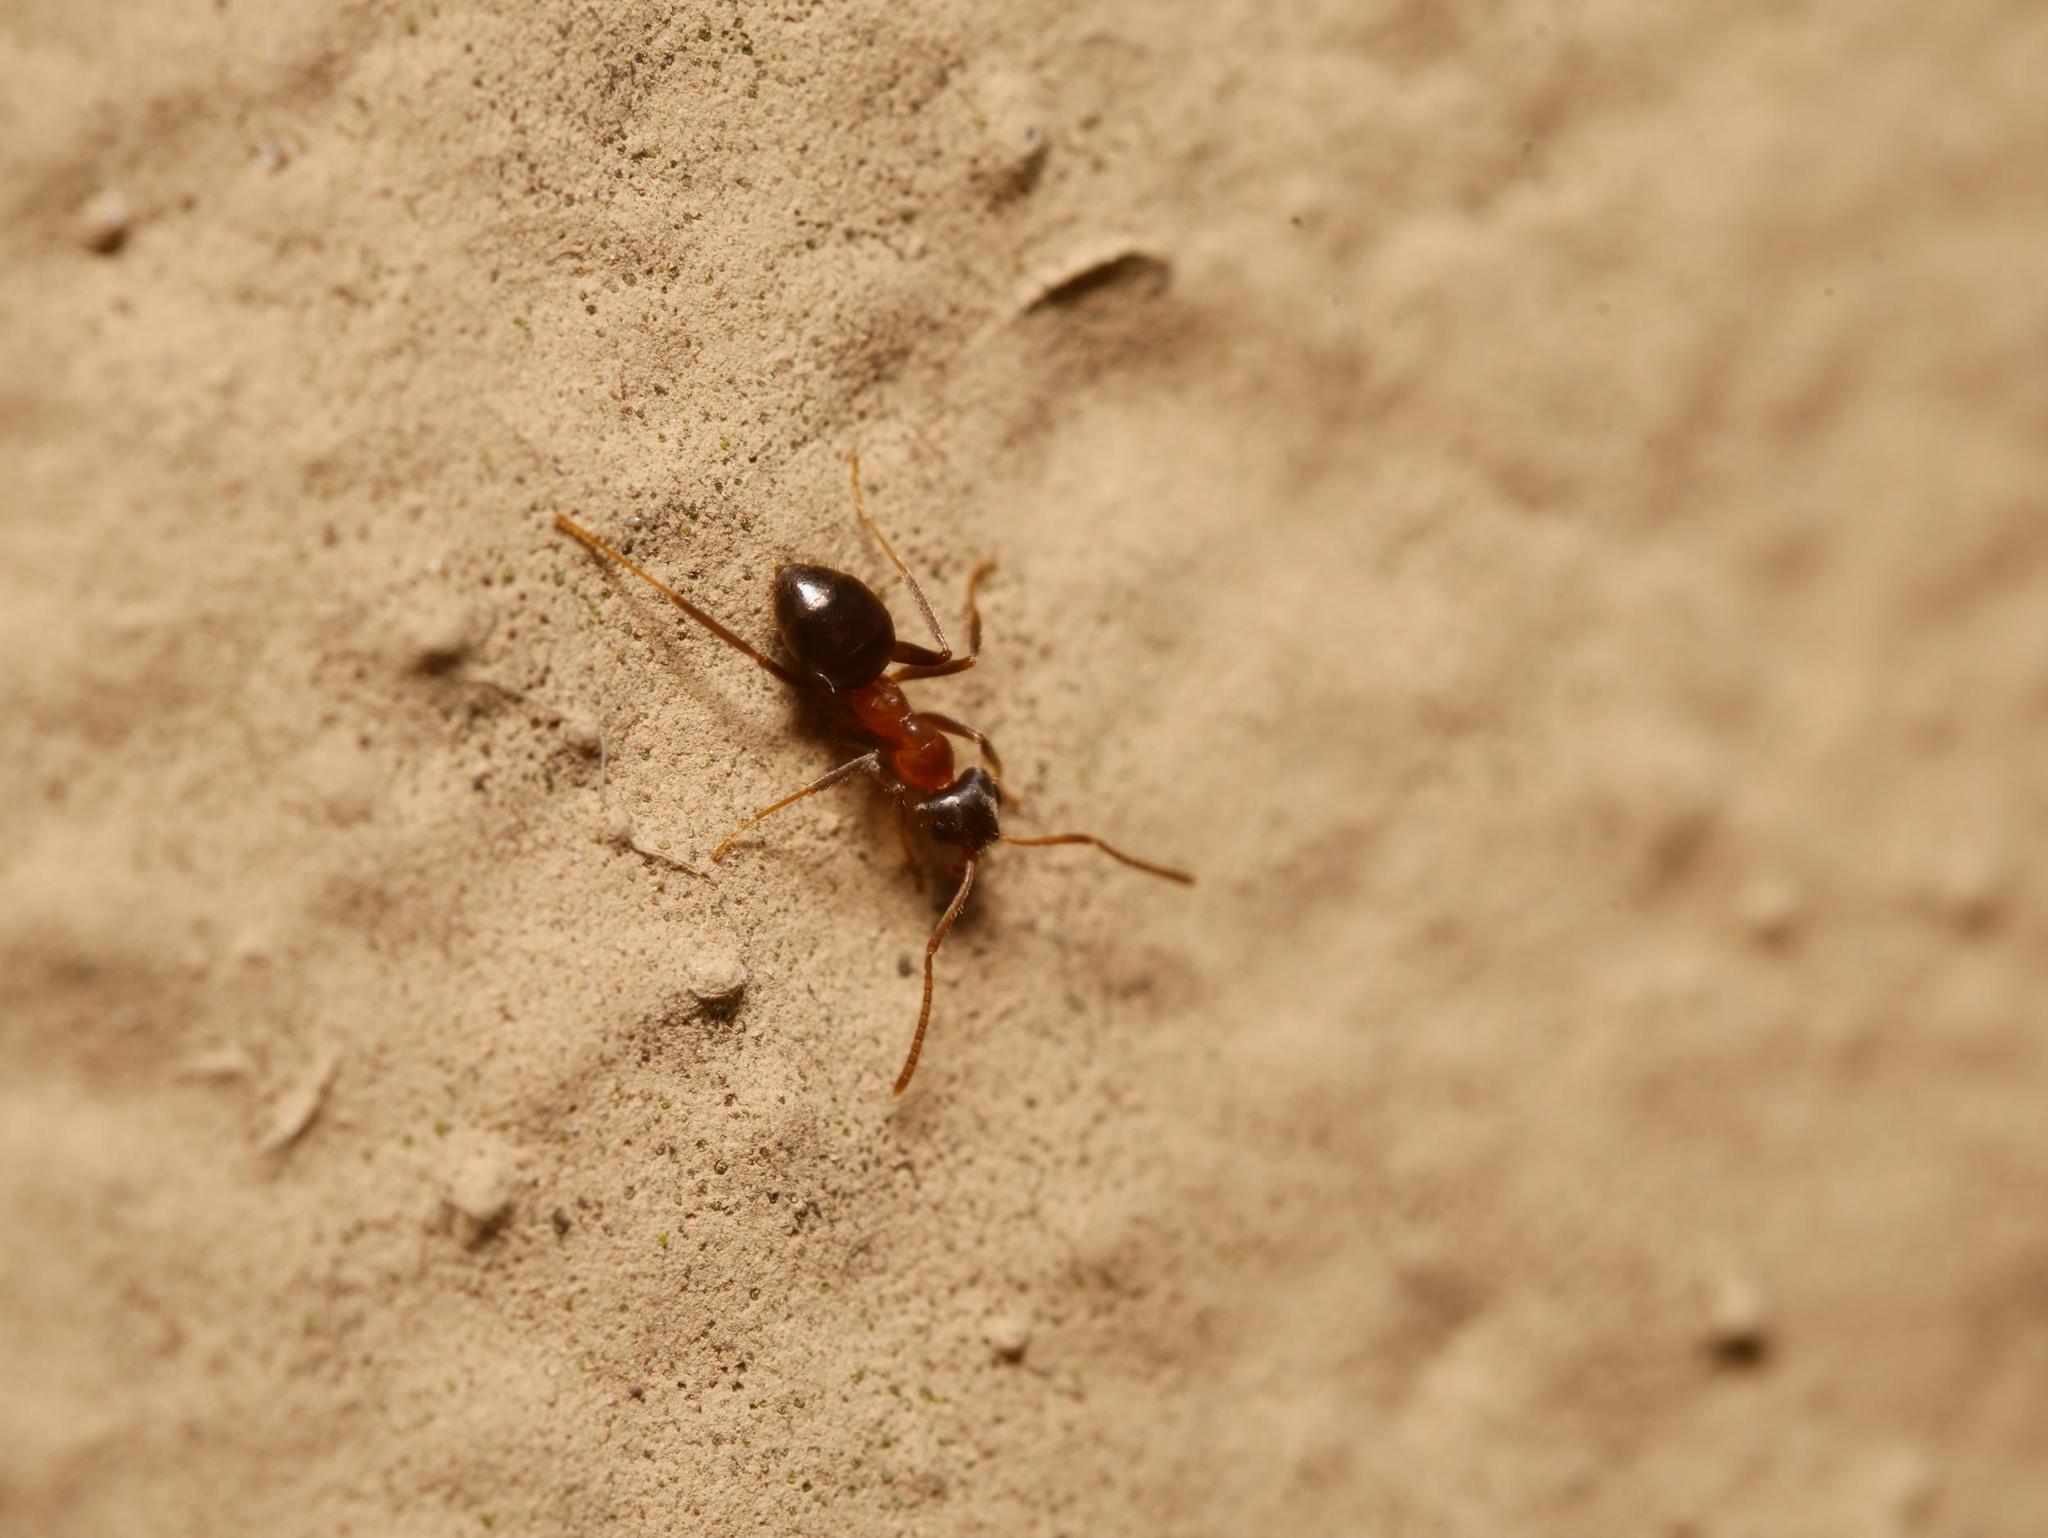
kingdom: Animalia
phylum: Arthropoda
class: Insecta
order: Hymenoptera
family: Formicidae
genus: Lasius
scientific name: Lasius emarginatus
